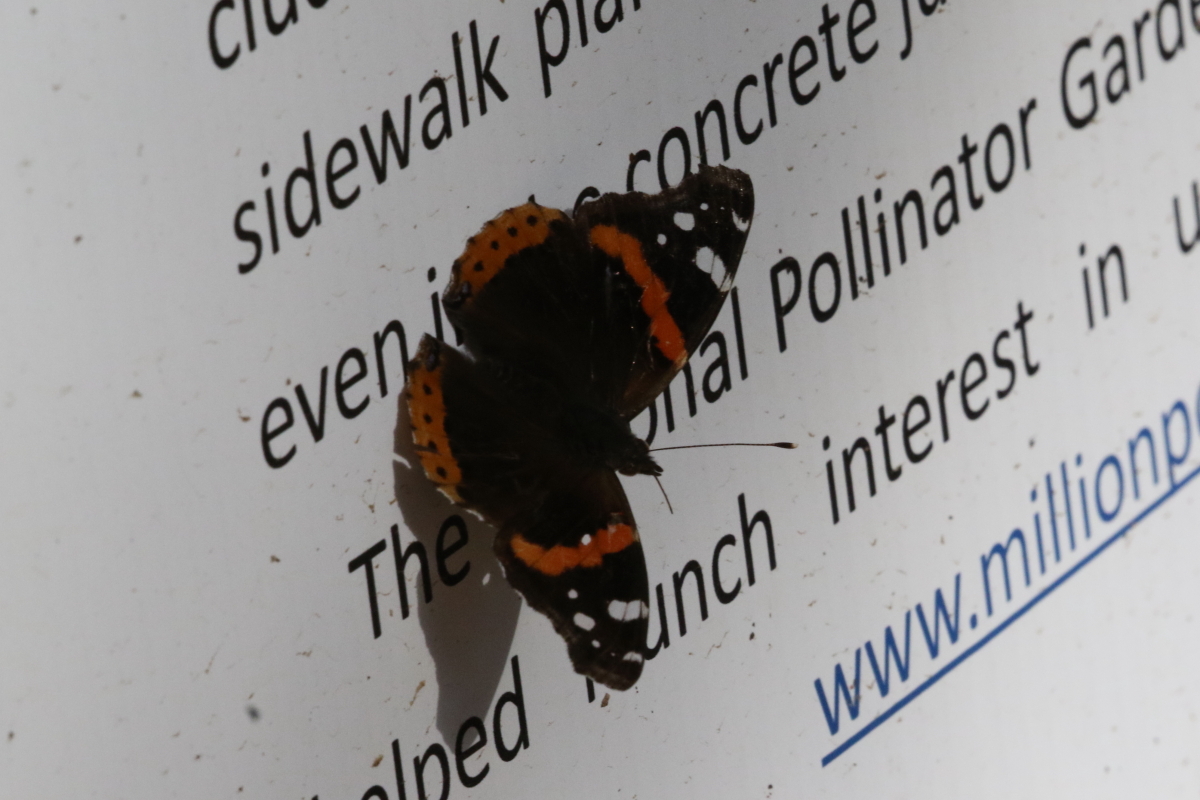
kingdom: Animalia
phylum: Arthropoda
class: Insecta
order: Lepidoptera
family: Nymphalidae
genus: Vanessa
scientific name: Vanessa atalanta
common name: Red admiral
